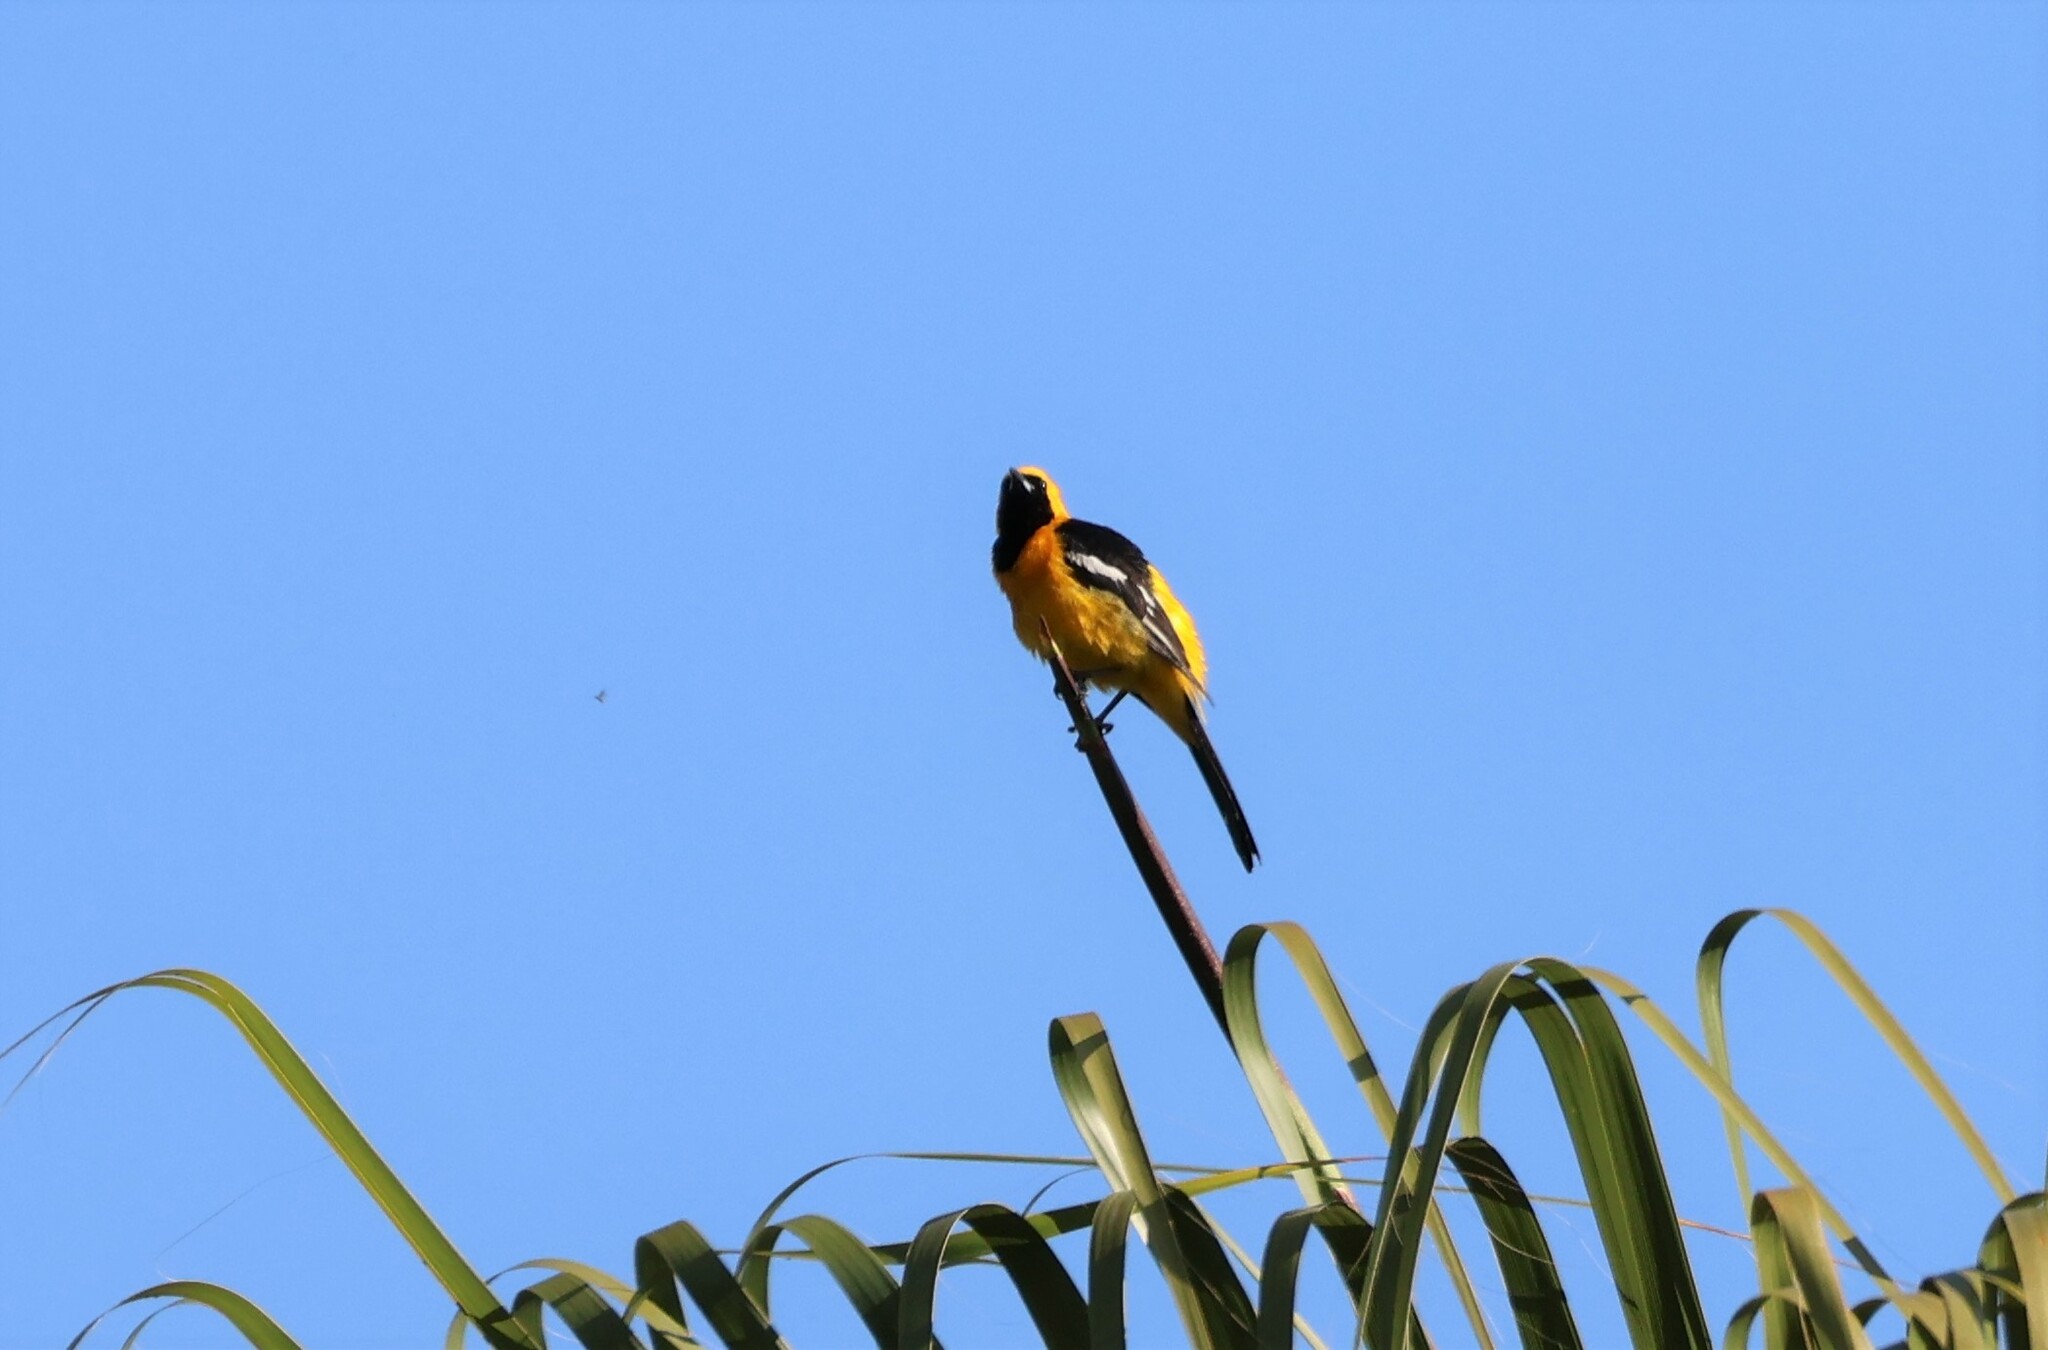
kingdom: Animalia
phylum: Chordata
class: Aves
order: Passeriformes
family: Icteridae
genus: Icterus
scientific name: Icterus cucullatus
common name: Hooded oriole
